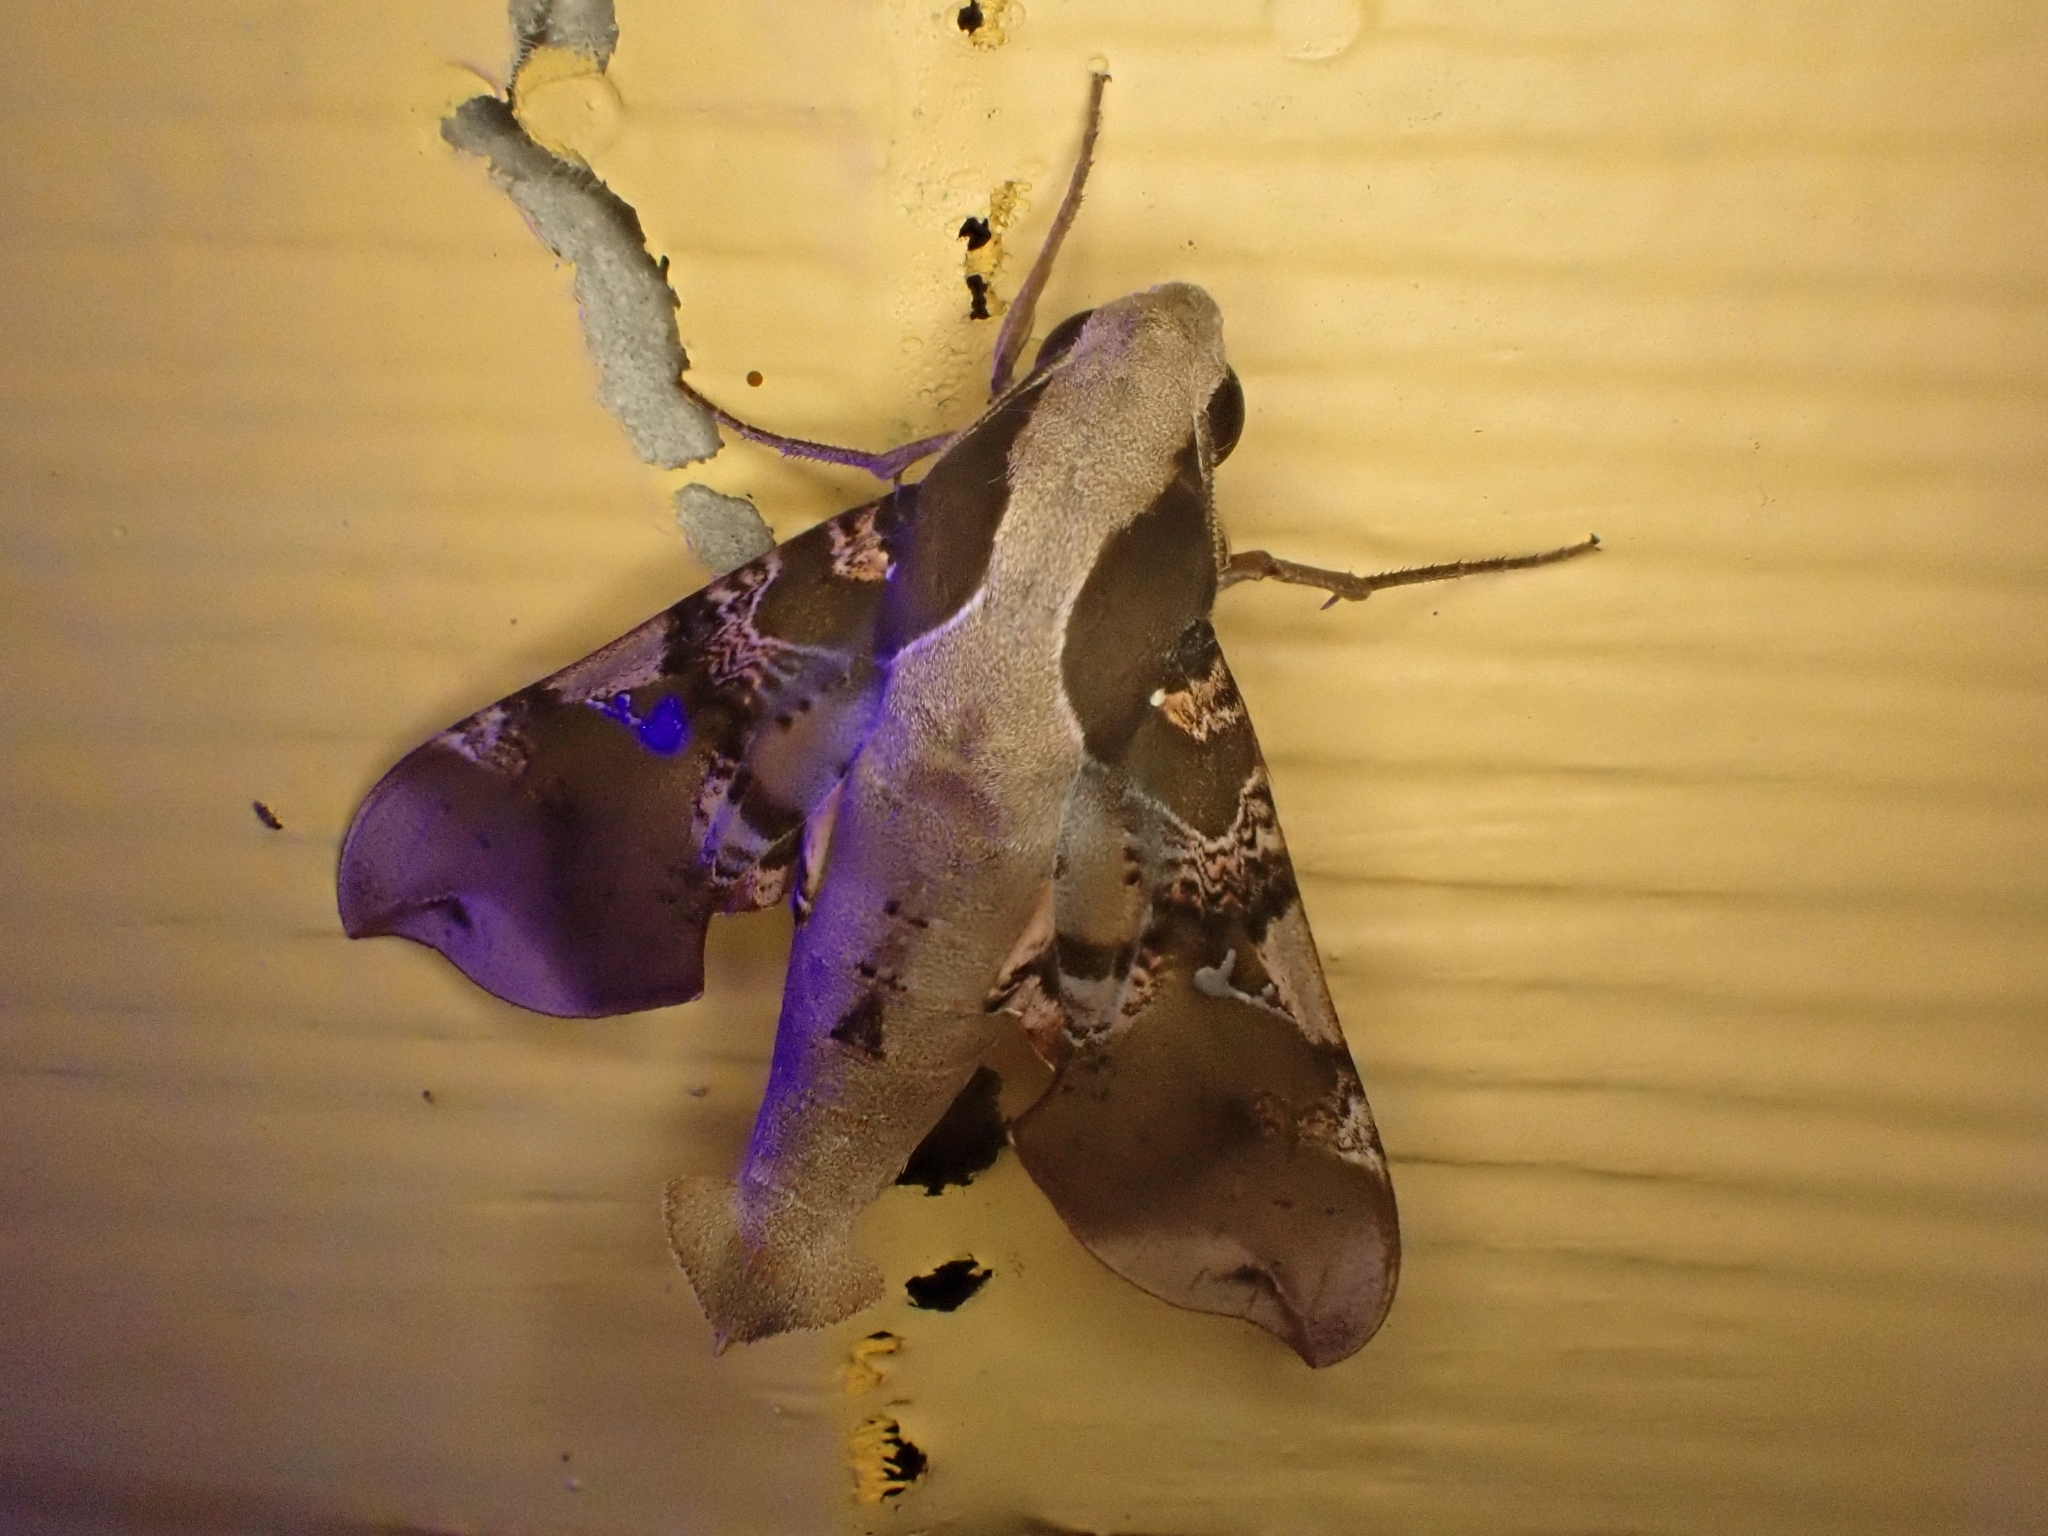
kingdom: Animalia
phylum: Arthropoda
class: Insecta
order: Lepidoptera
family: Sphingidae
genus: Callionima
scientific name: Callionima parce
